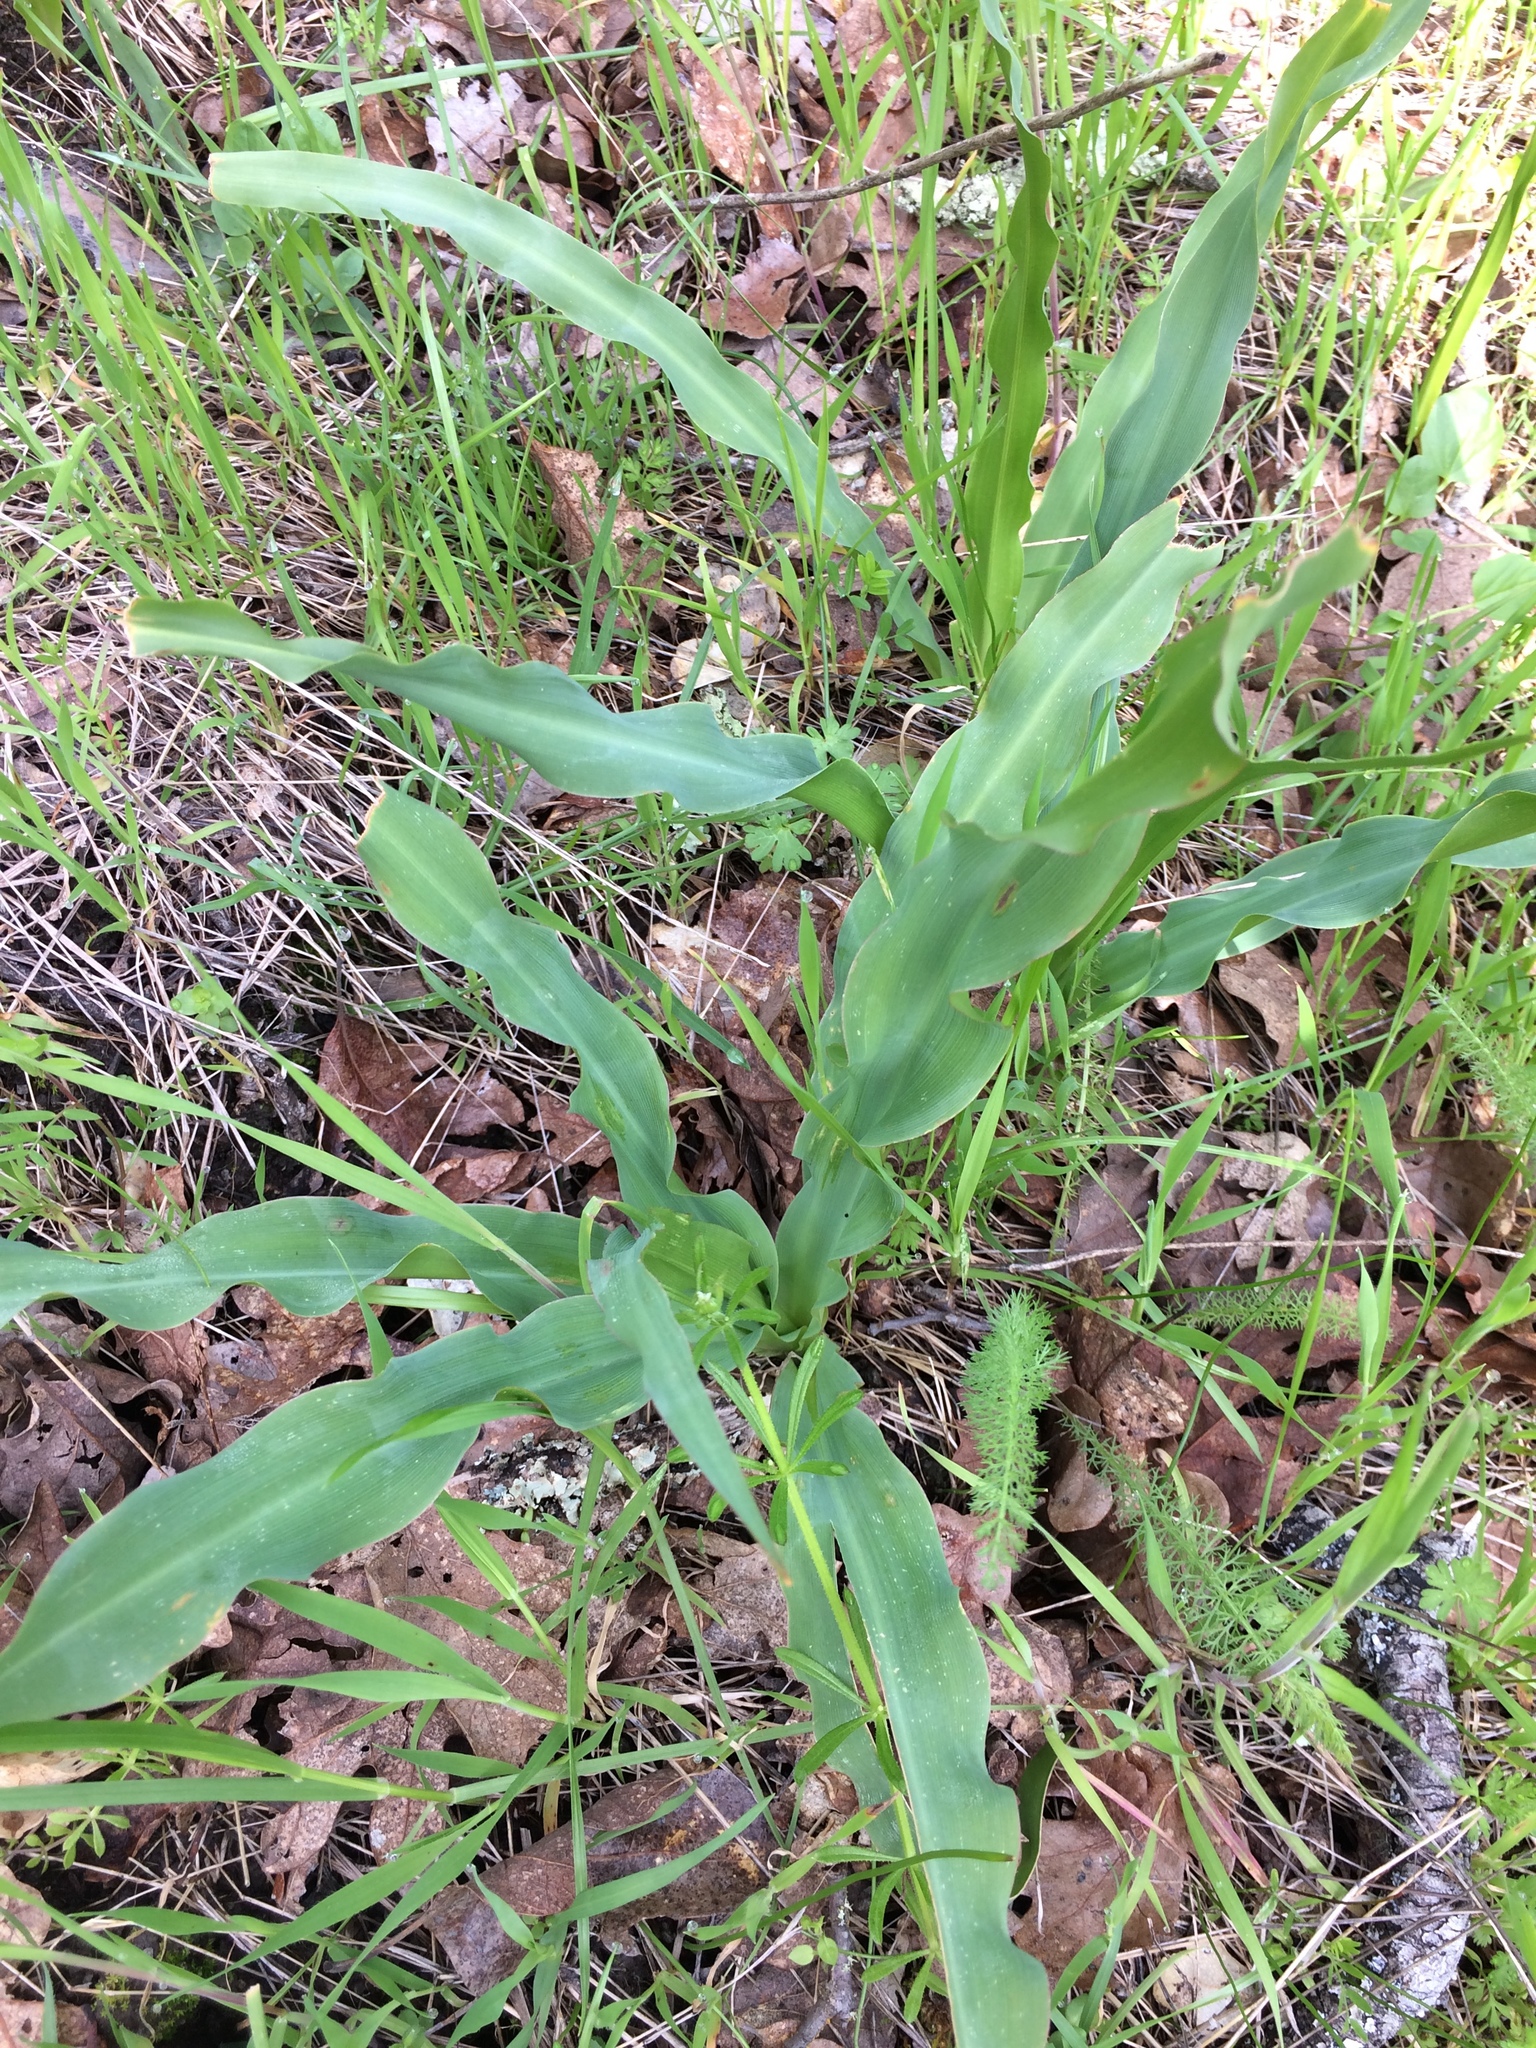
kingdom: Plantae
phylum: Tracheophyta
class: Liliopsida
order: Asparagales
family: Asparagaceae
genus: Chlorogalum
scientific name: Chlorogalum pomeridianum
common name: Amole
